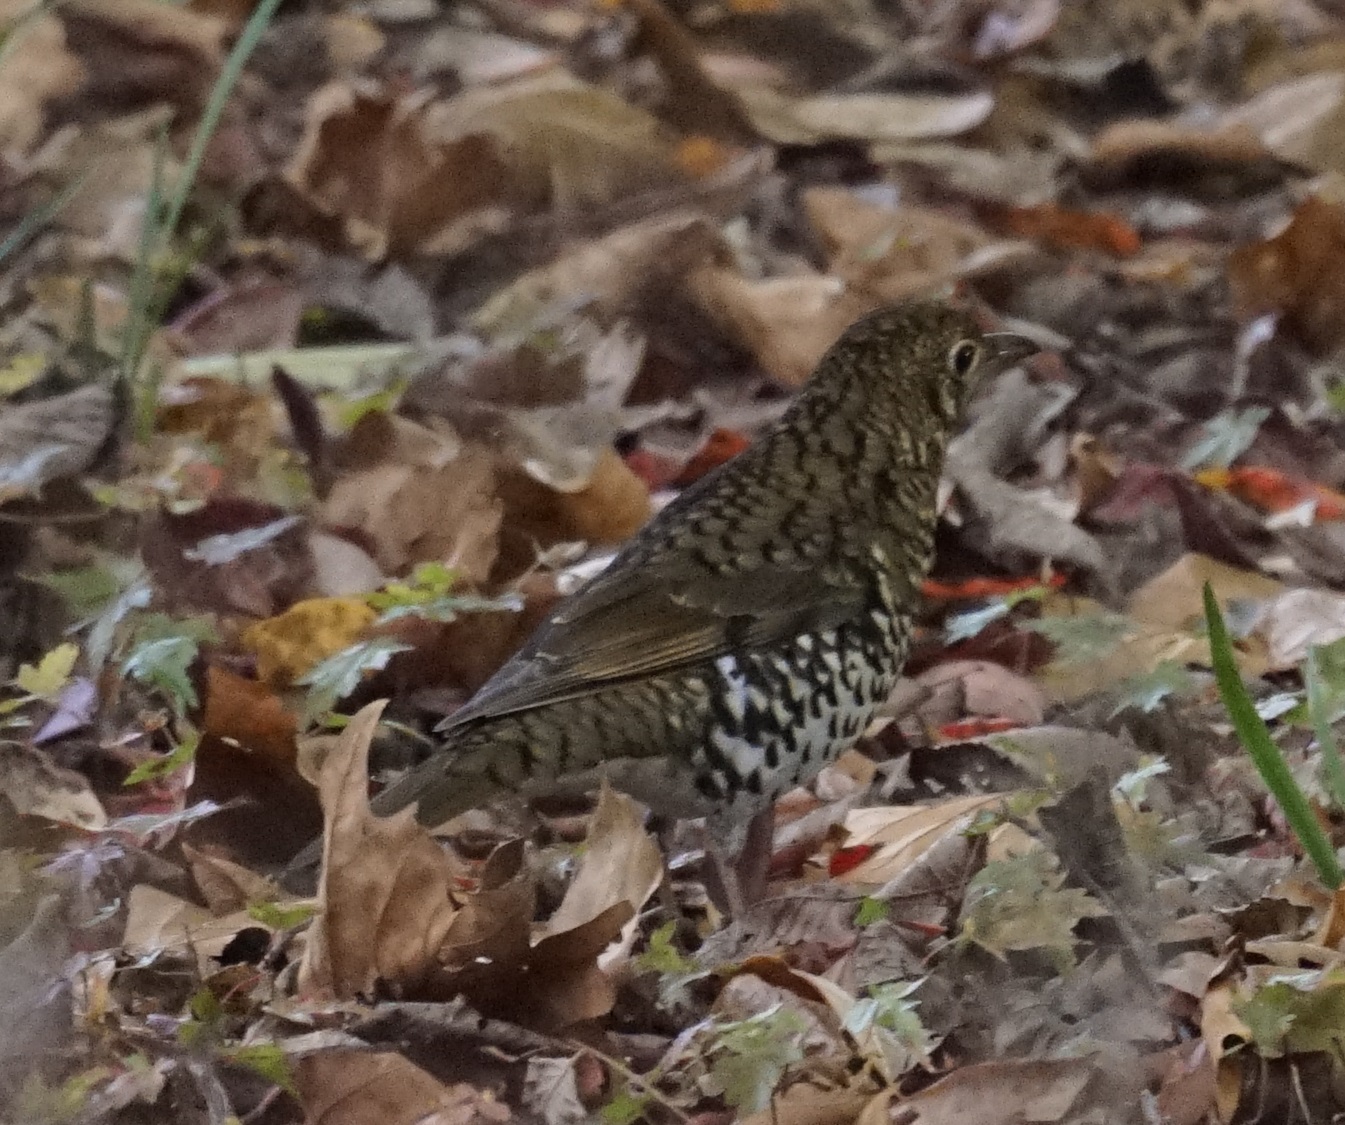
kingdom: Animalia
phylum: Chordata
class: Aves
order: Passeriformes
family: Turdidae
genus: Zoothera
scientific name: Zoothera lunulata
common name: Bassian thrush
